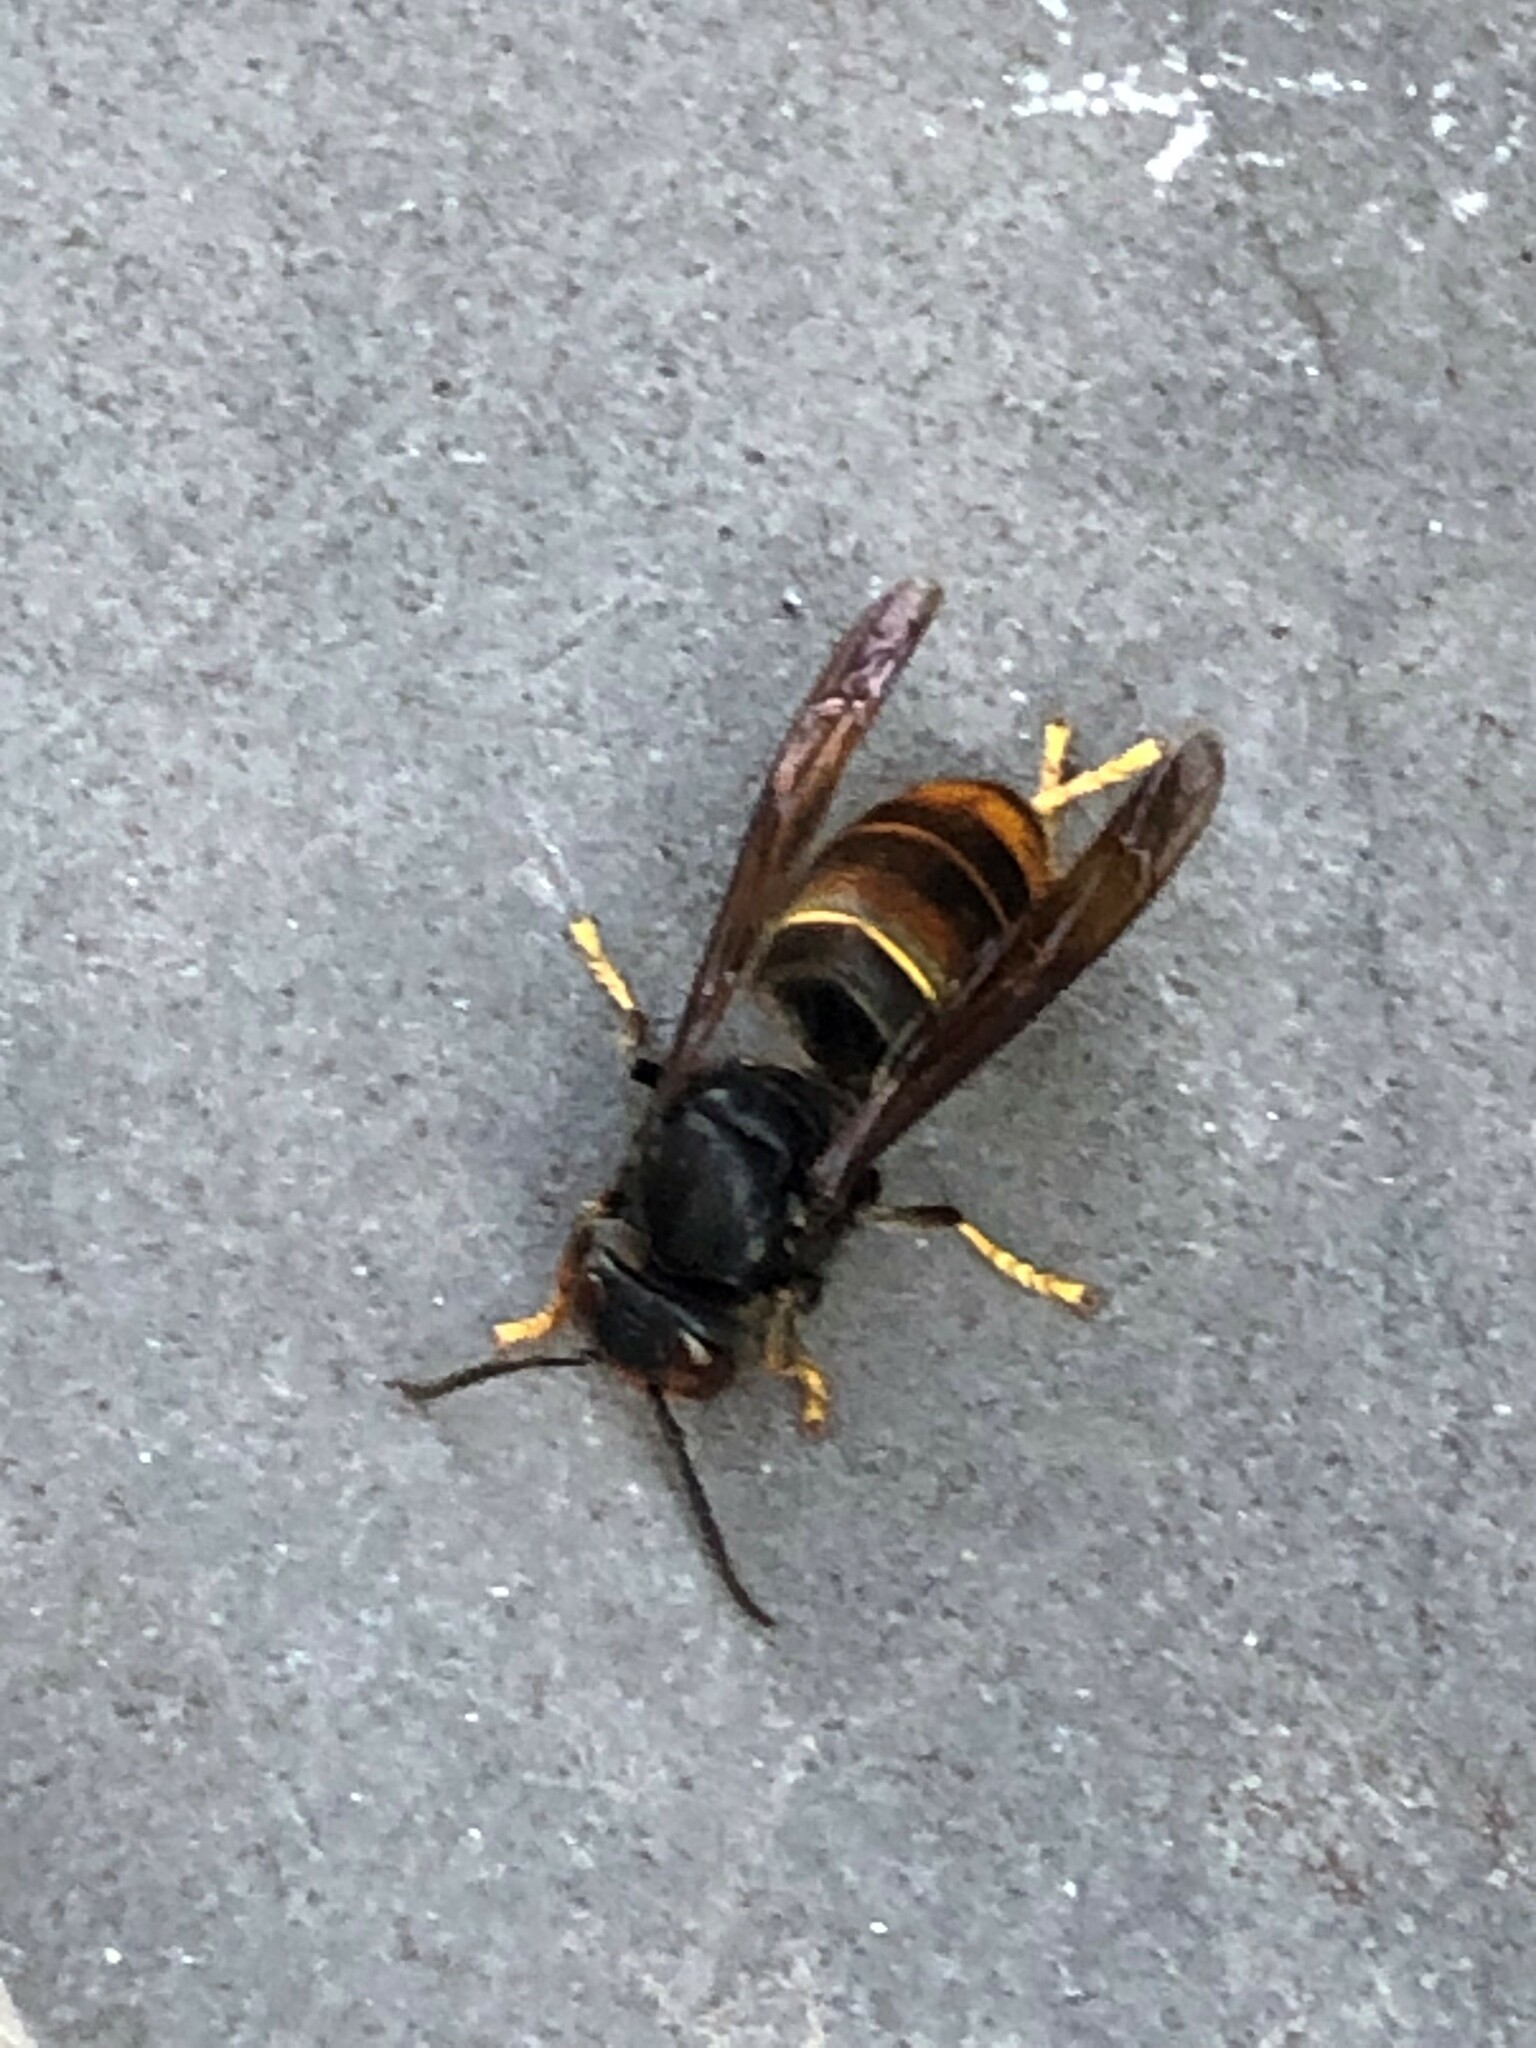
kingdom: Animalia
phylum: Arthropoda
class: Insecta
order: Hymenoptera
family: Vespidae
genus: Vespa
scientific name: Vespa velutina
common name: Asian hornet
